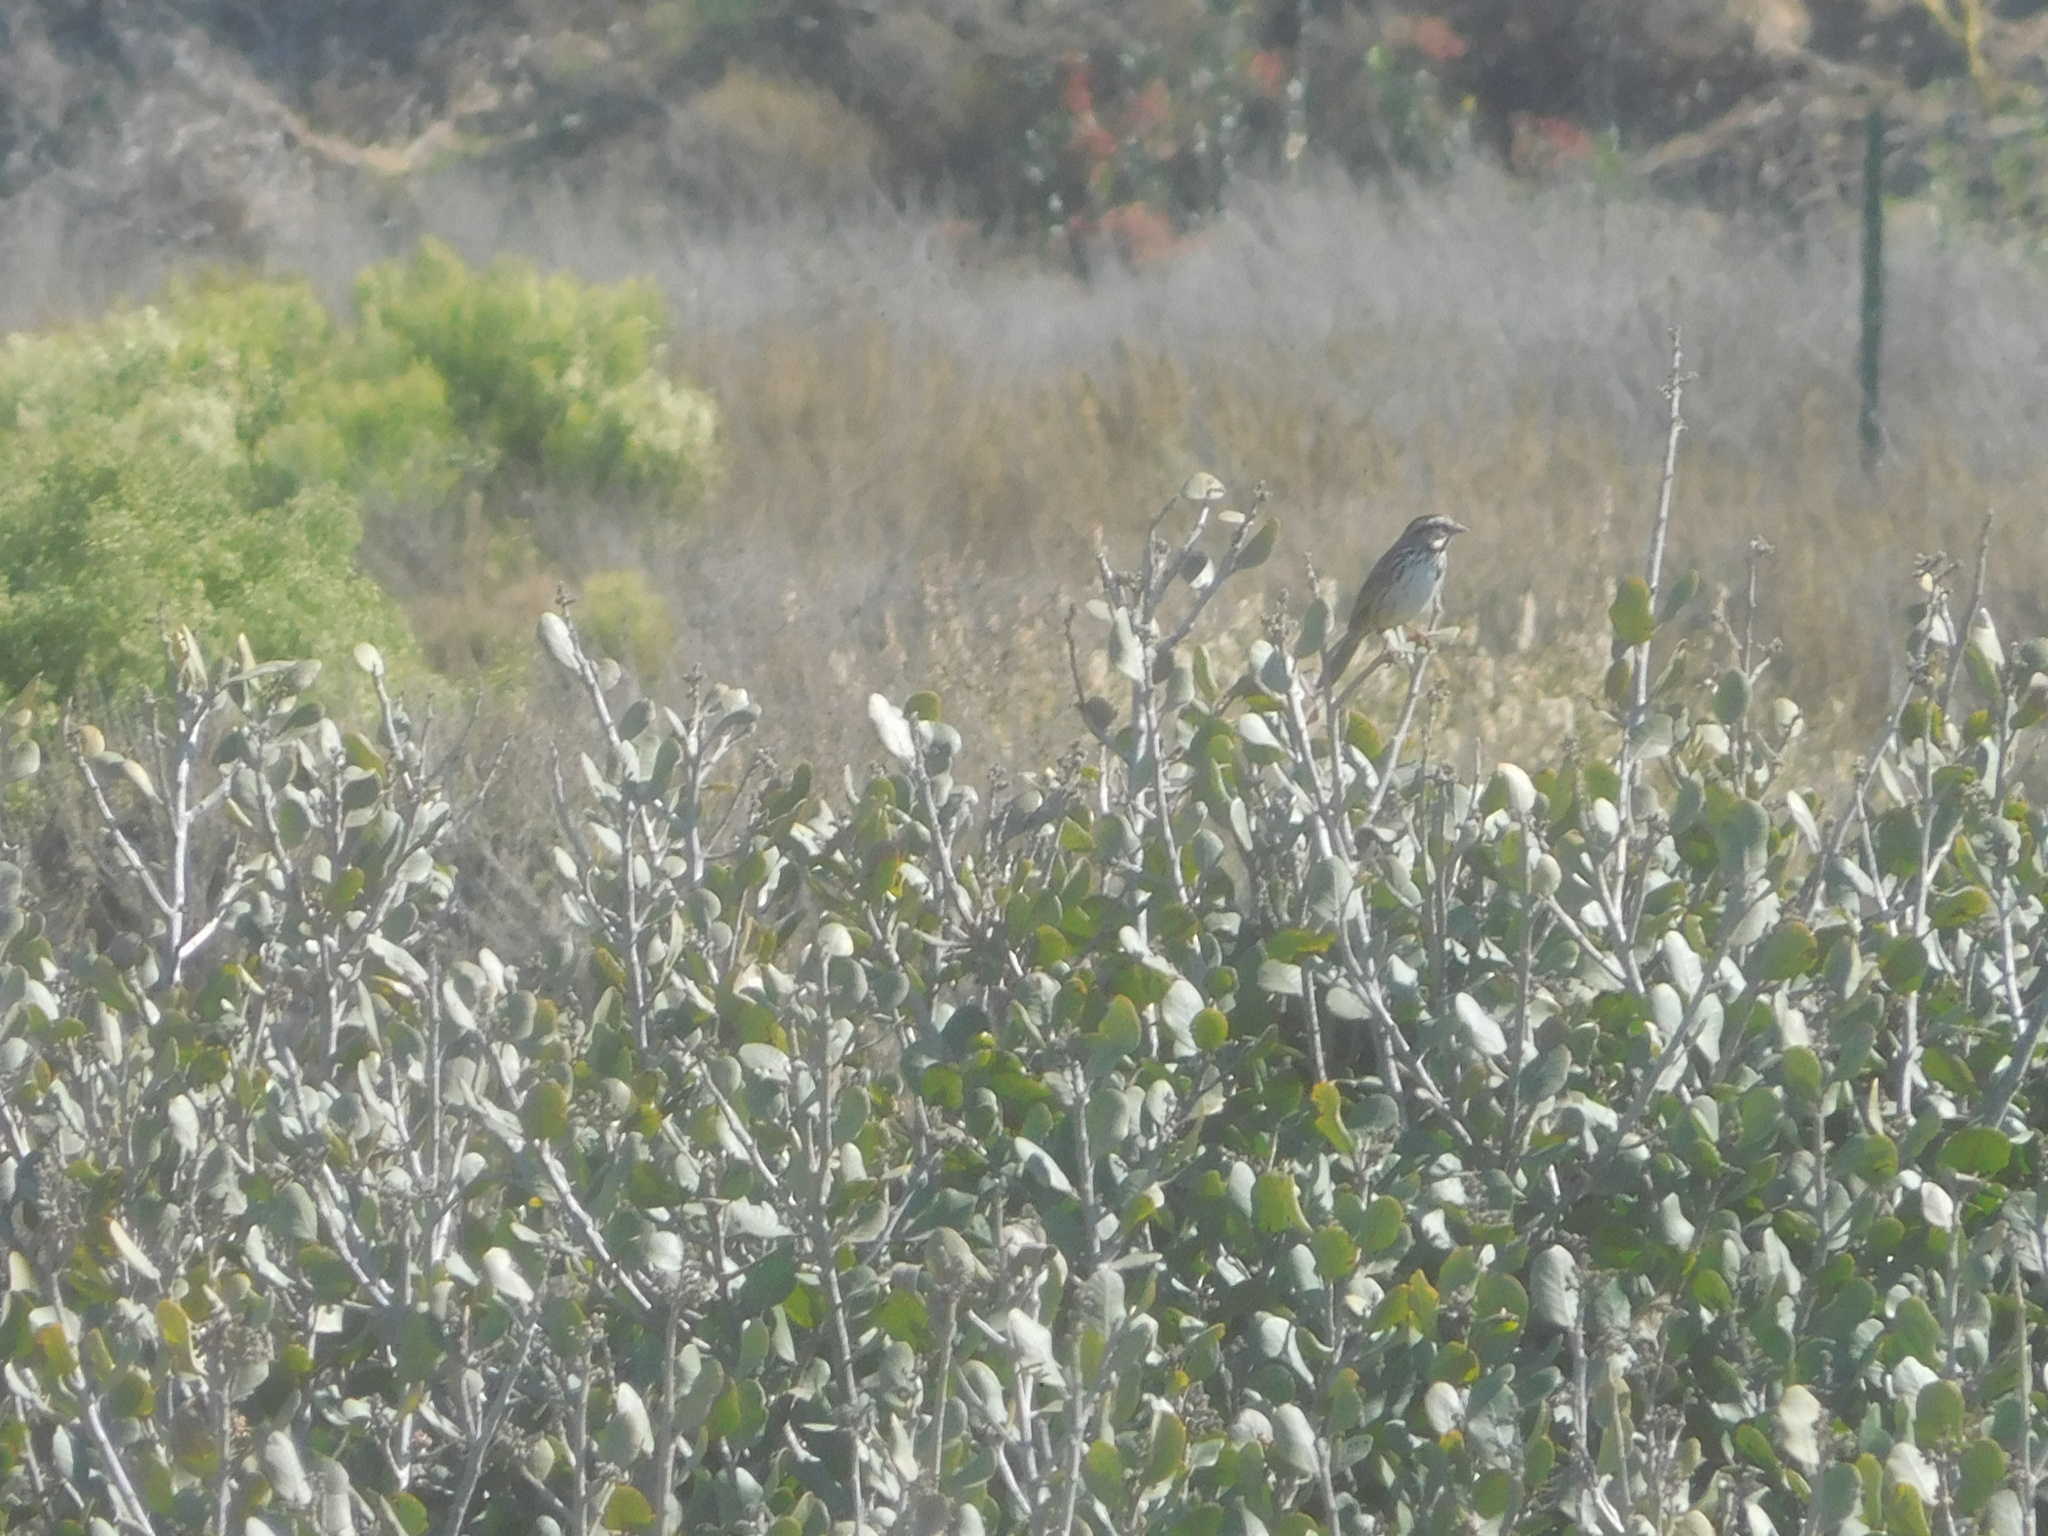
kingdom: Animalia
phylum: Chordata
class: Aves
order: Passeriformes
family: Passerellidae
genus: Melospiza
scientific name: Melospiza melodia
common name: Song sparrow
